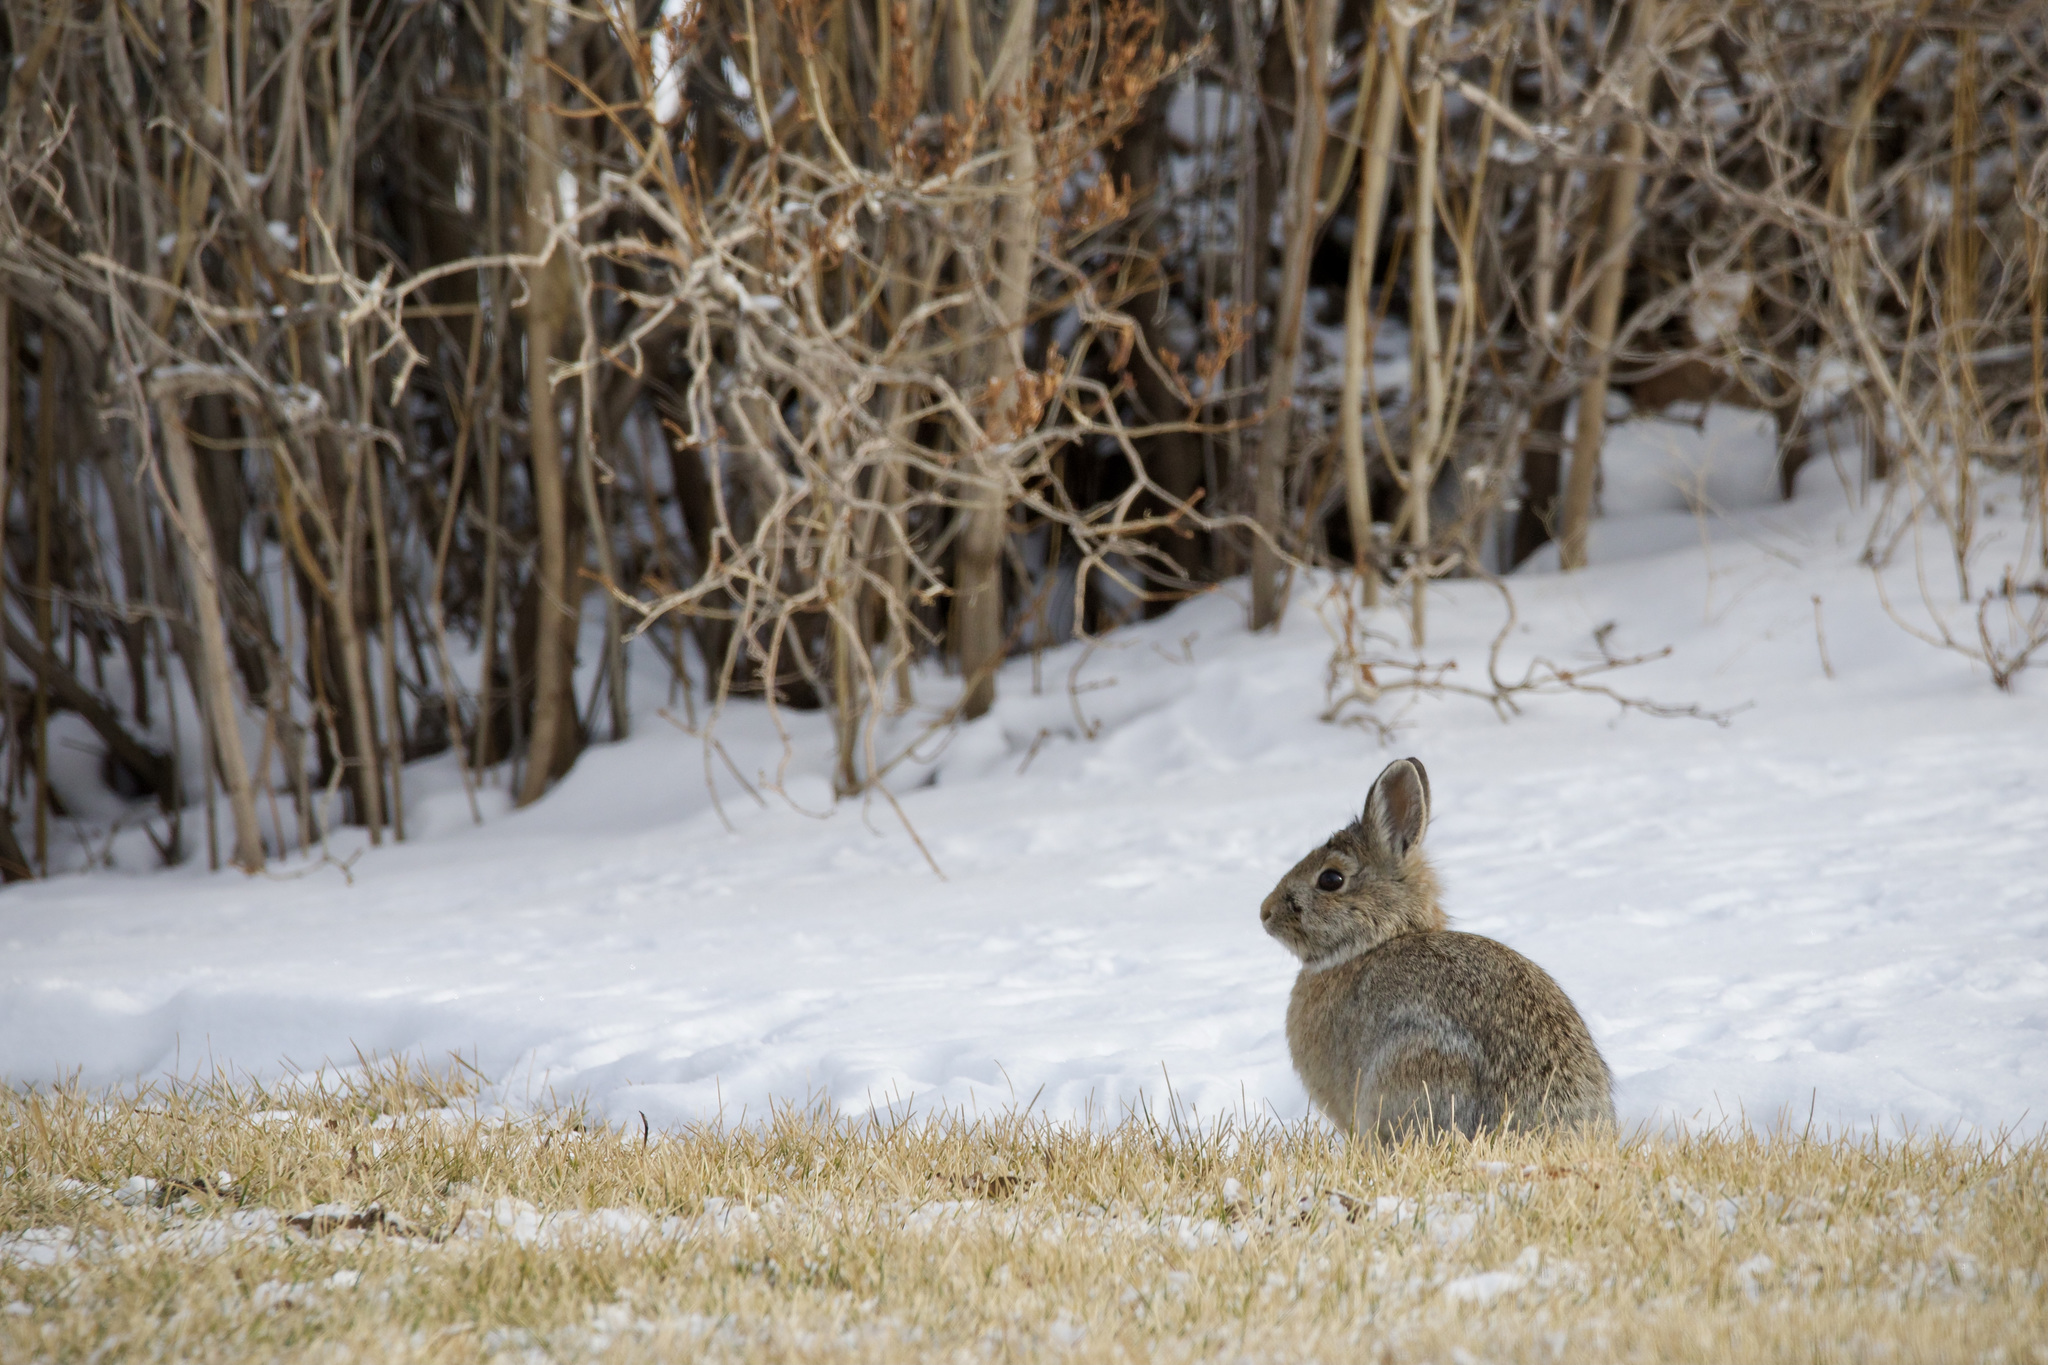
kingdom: Animalia
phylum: Chordata
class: Mammalia
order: Lagomorpha
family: Leporidae
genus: Sylvilagus
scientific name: Sylvilagus nuttallii
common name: Mountain cottontail
